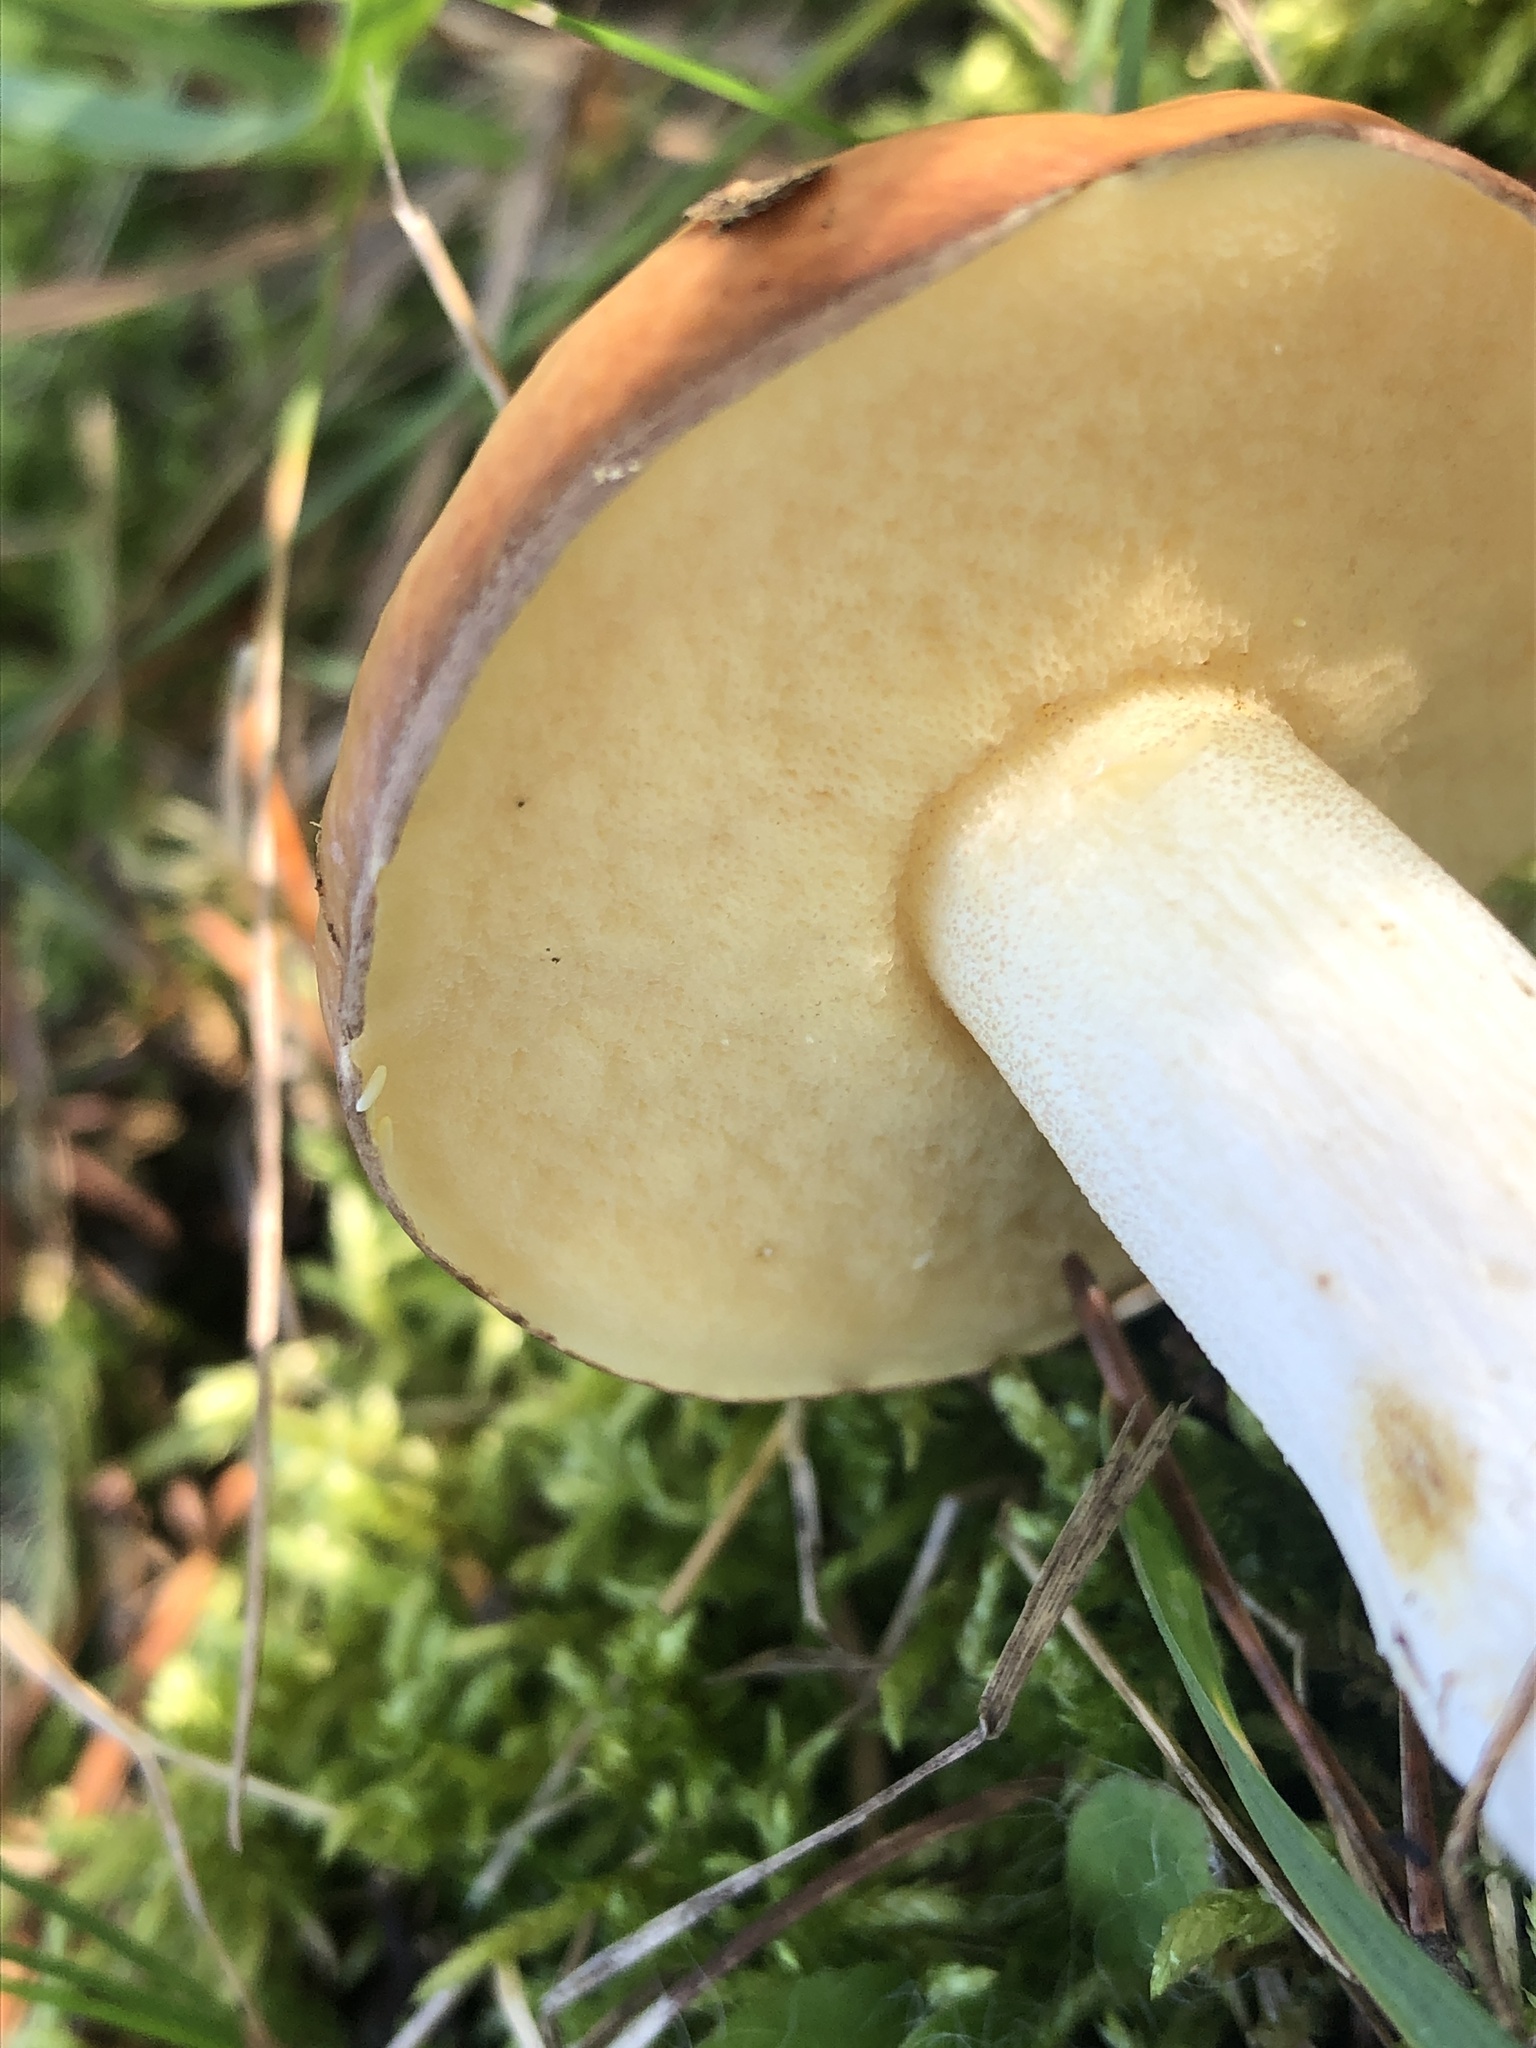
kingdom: Fungi
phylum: Basidiomycota
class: Agaricomycetes
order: Boletales
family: Suillaceae
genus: Suillus
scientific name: Suillus brevipes
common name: Short-stalked suillus
